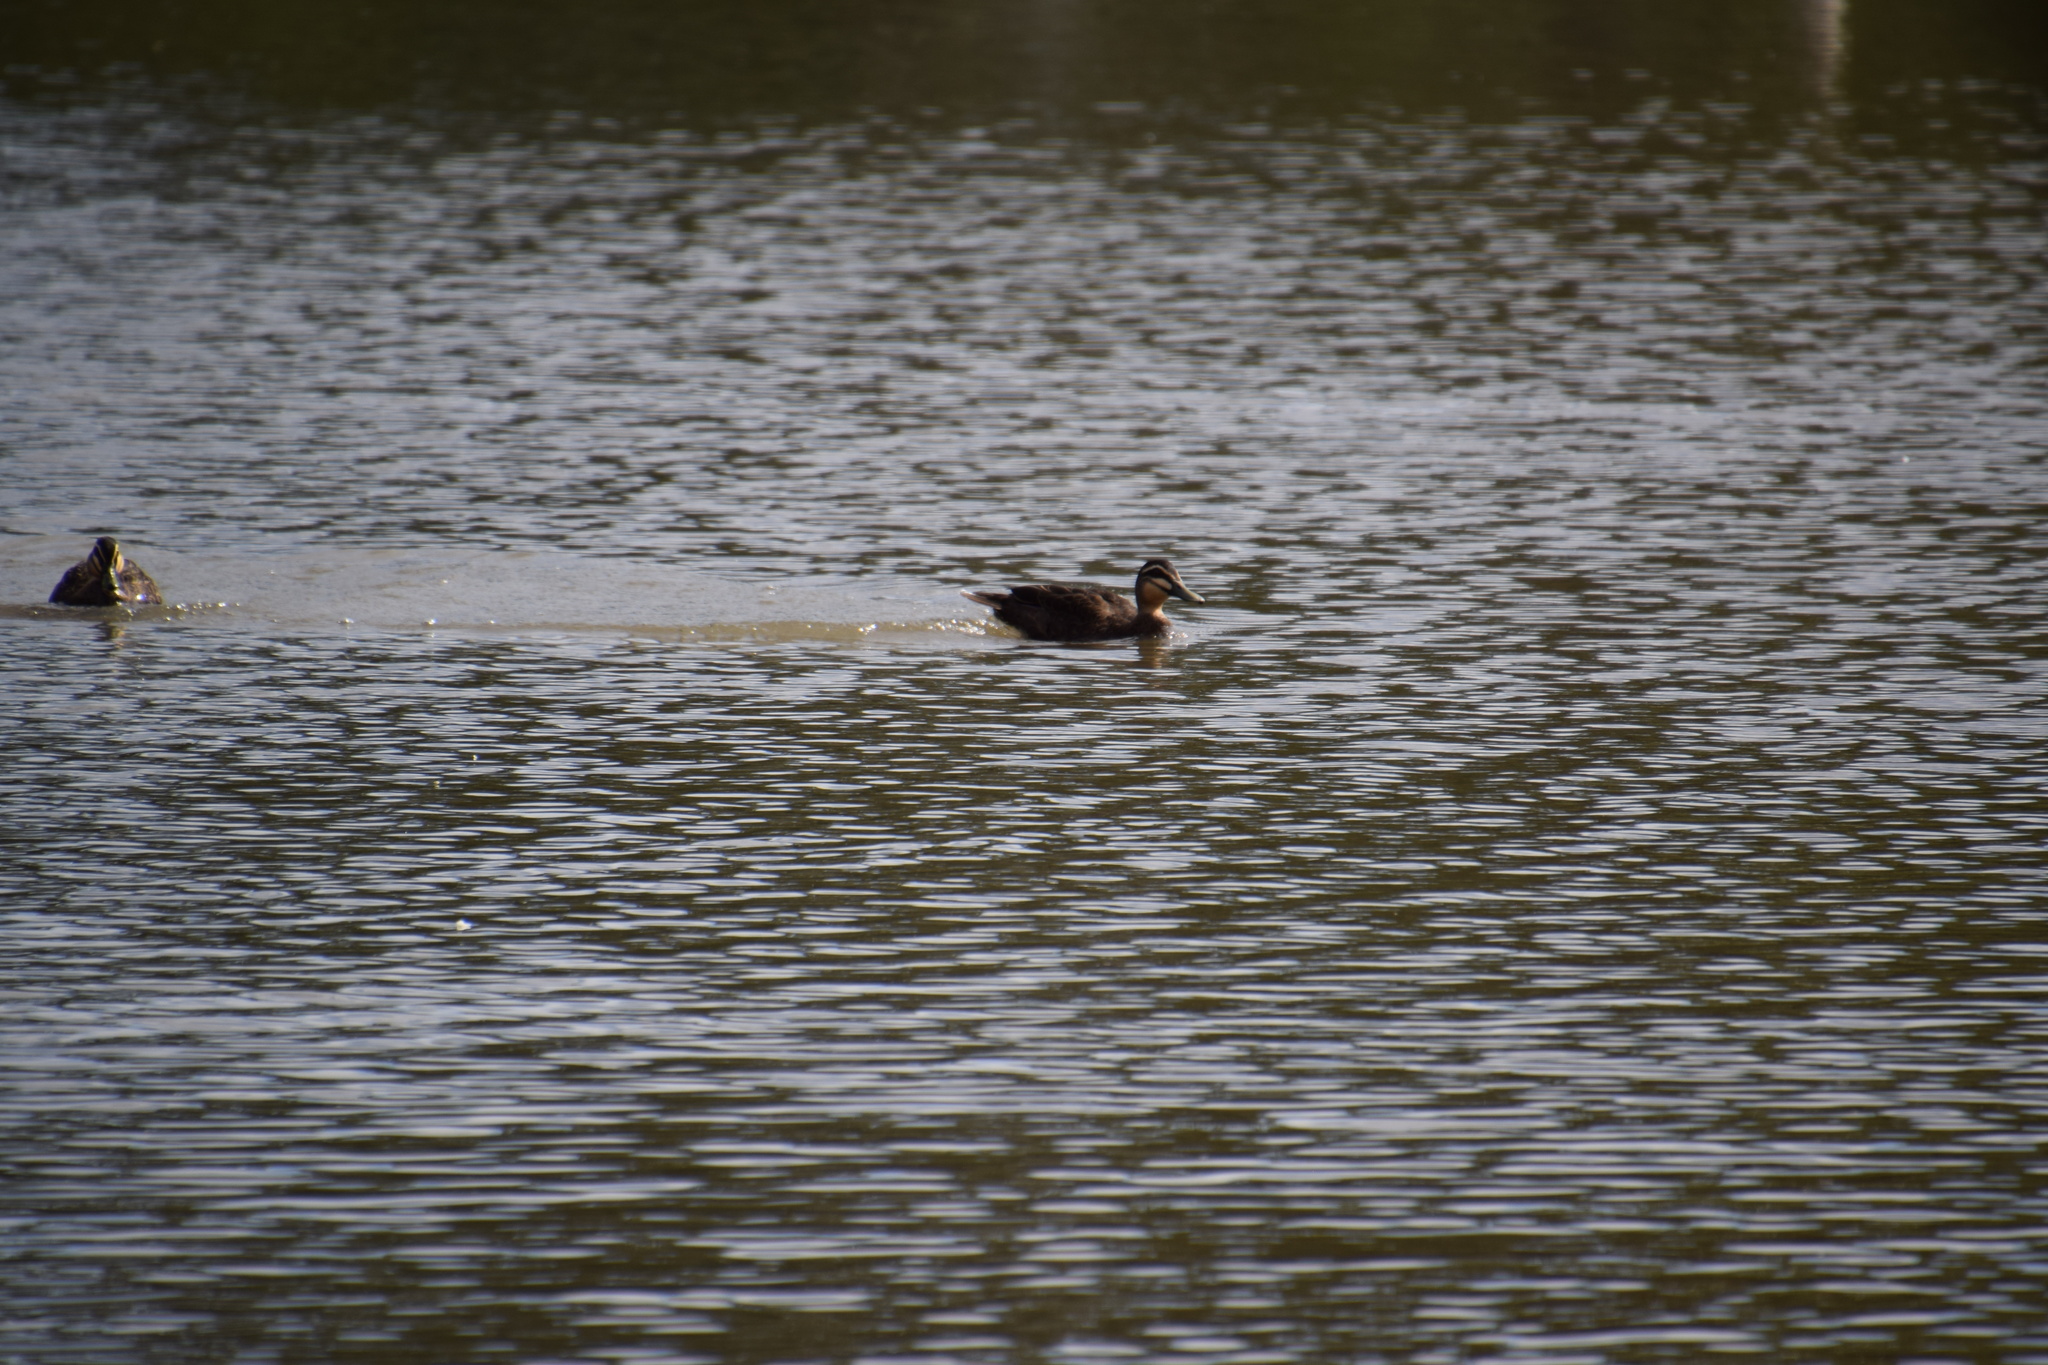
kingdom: Animalia
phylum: Chordata
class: Aves
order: Anseriformes
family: Anatidae
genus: Anas
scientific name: Anas superciliosa
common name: Pacific black duck
